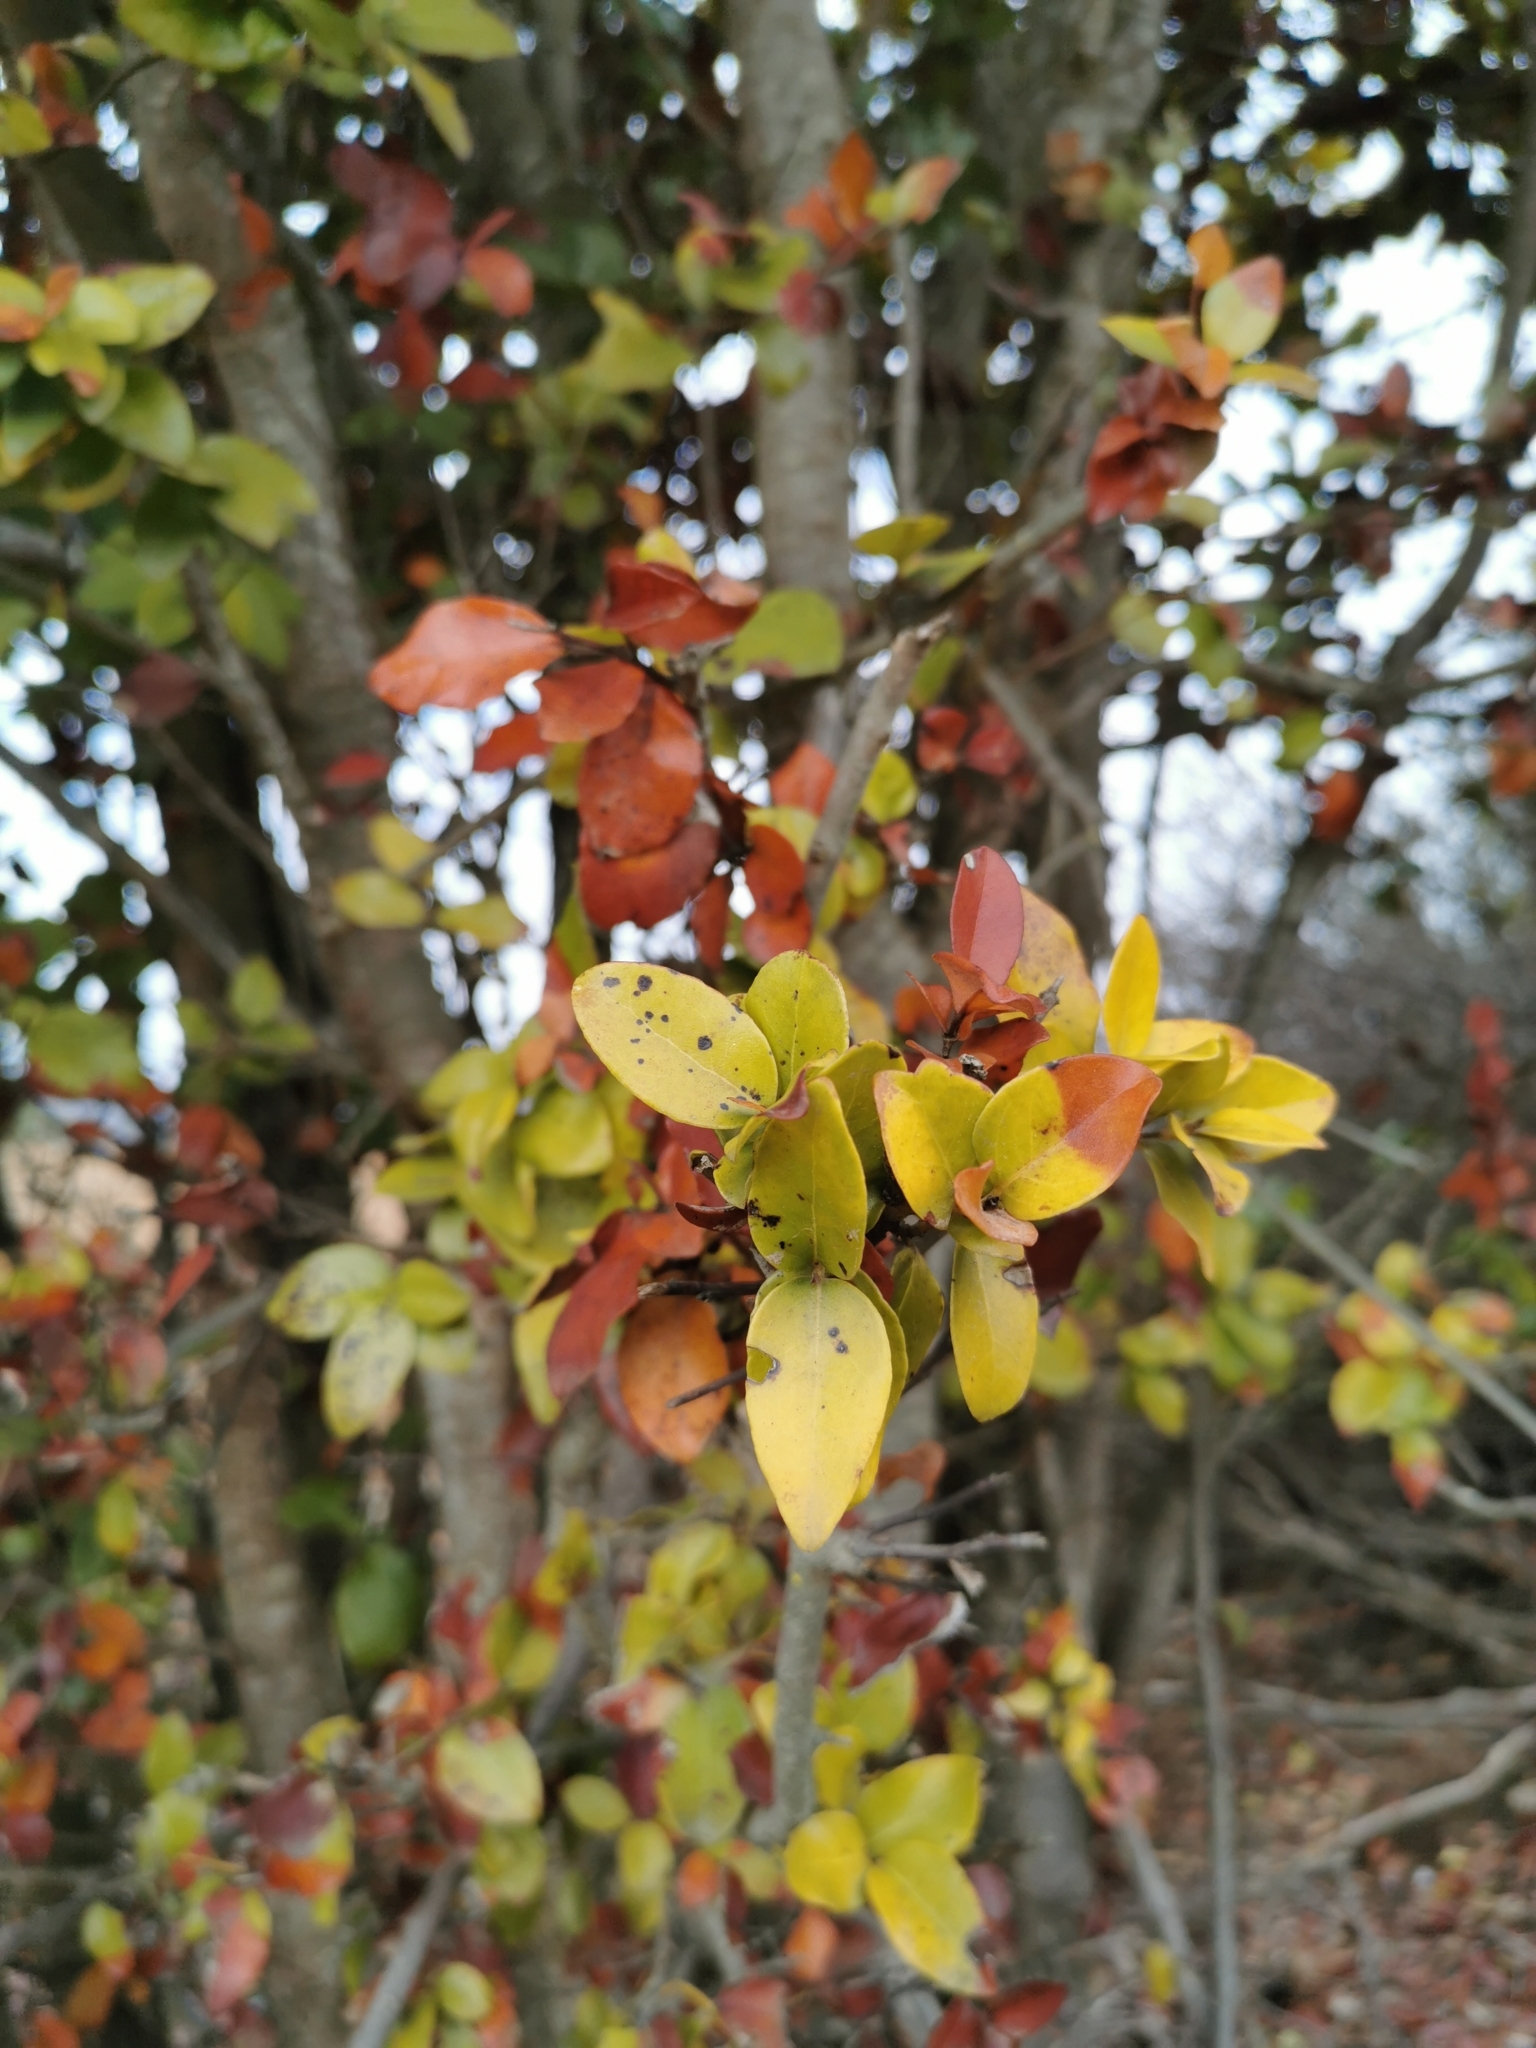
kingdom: Plantae
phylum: Tracheophyta
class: Magnoliopsida
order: Laurales
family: Lauraceae
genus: Cryptocarya
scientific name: Cryptocarya alba
